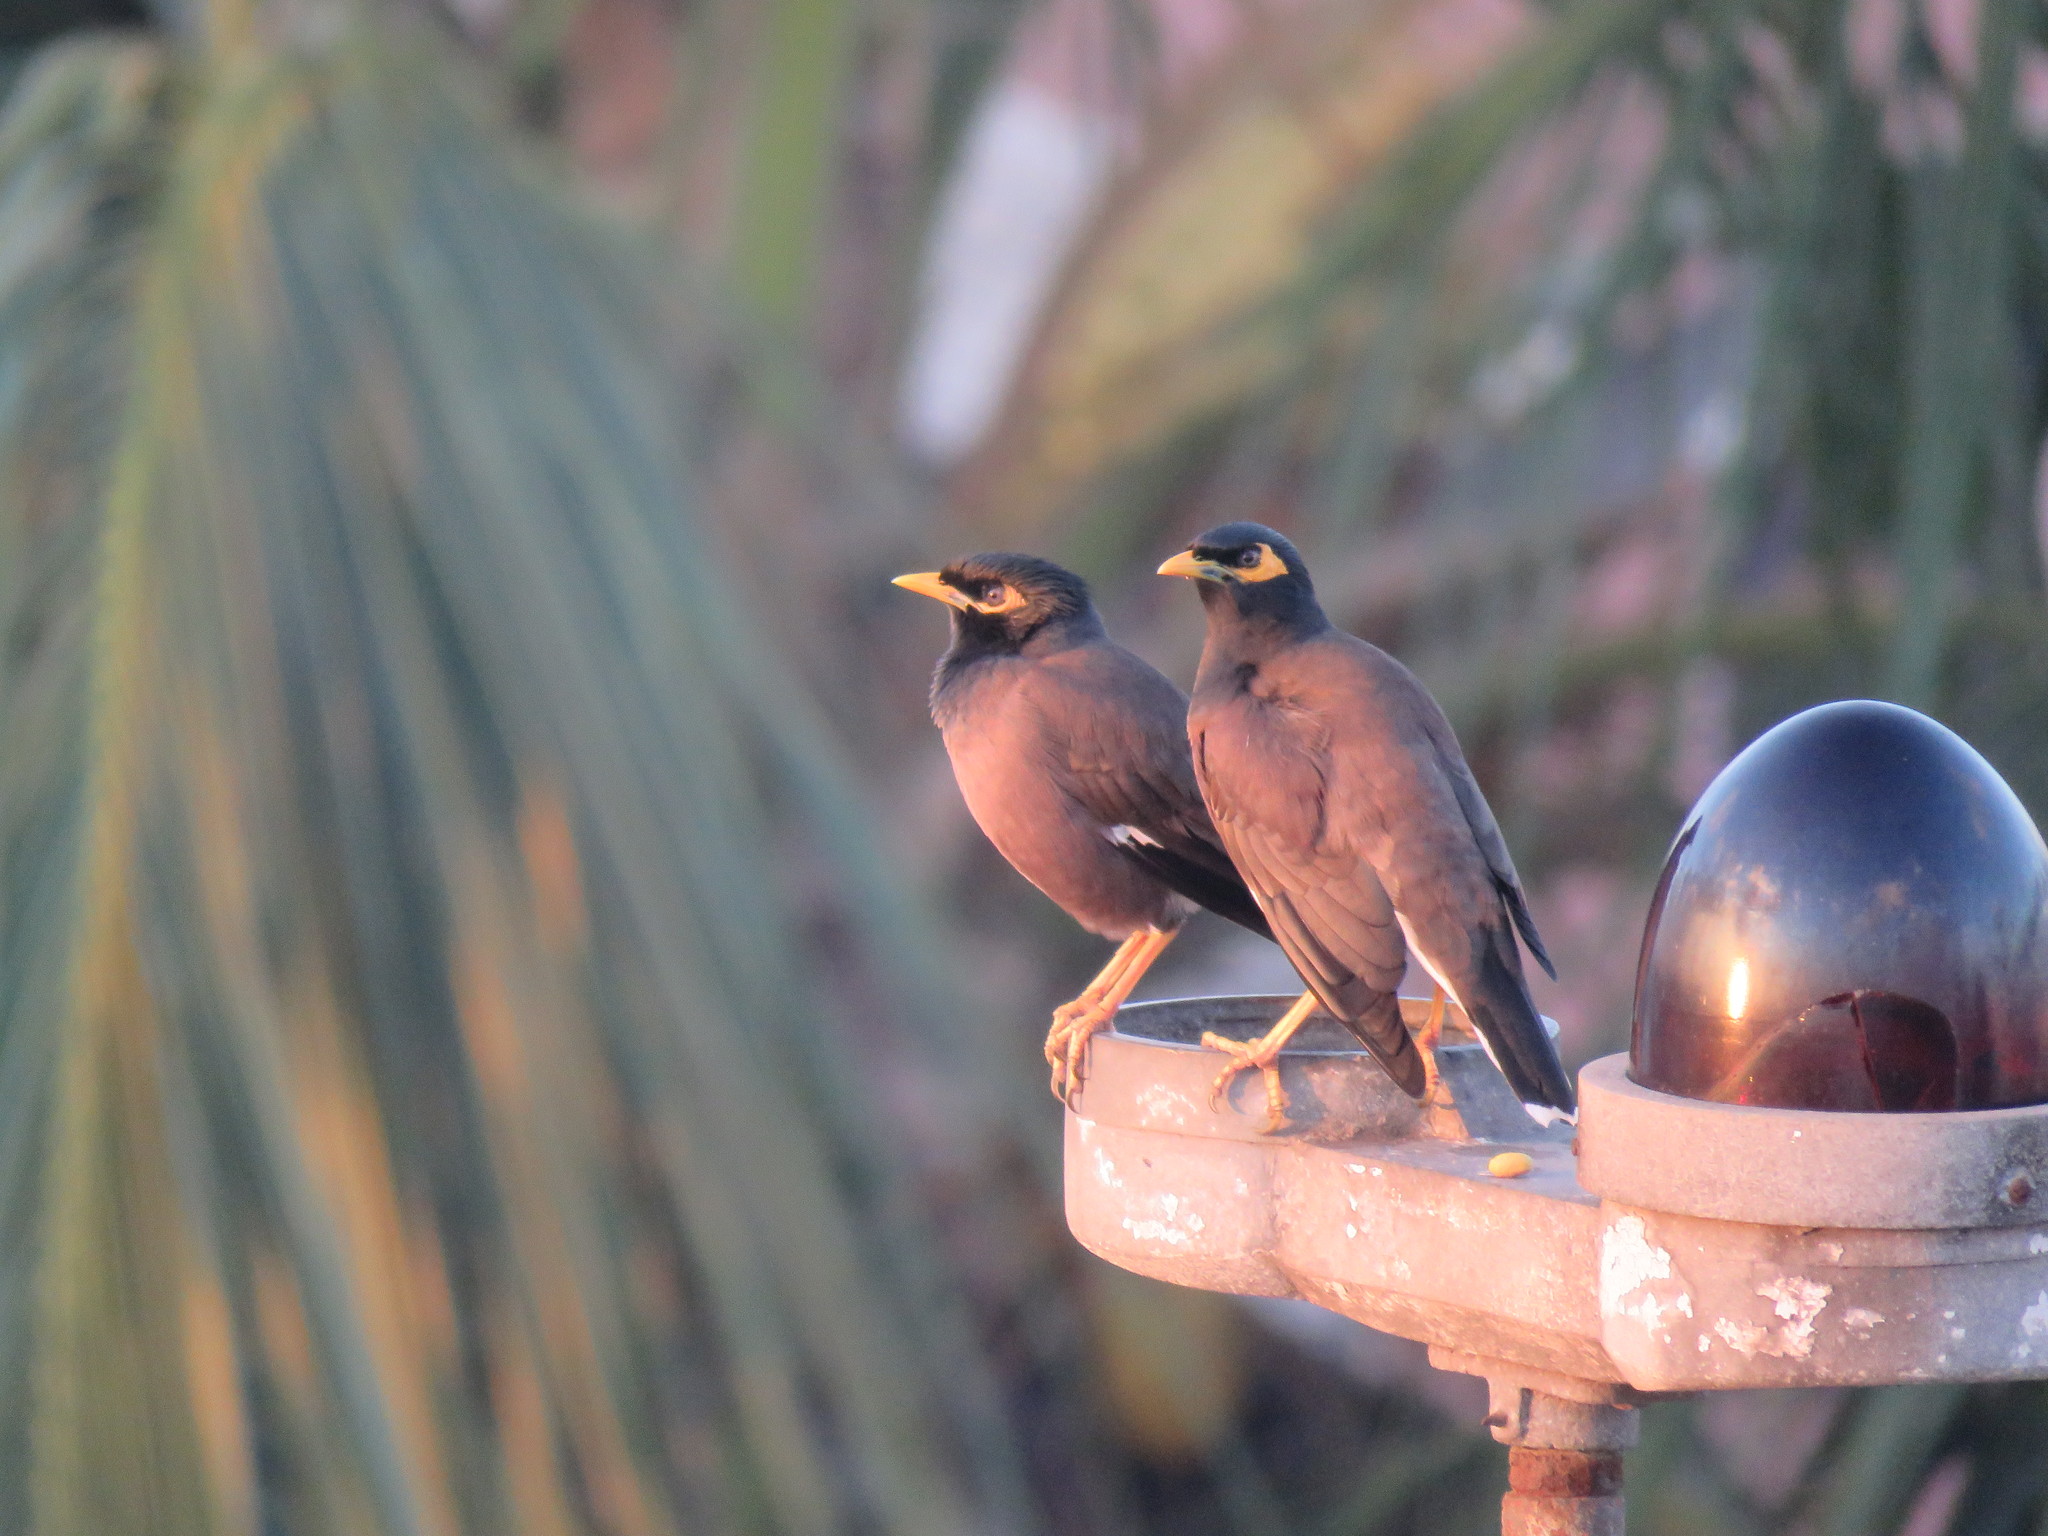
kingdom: Animalia
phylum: Chordata
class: Aves
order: Passeriformes
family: Sturnidae
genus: Acridotheres
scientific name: Acridotheres tristis
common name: Common myna
